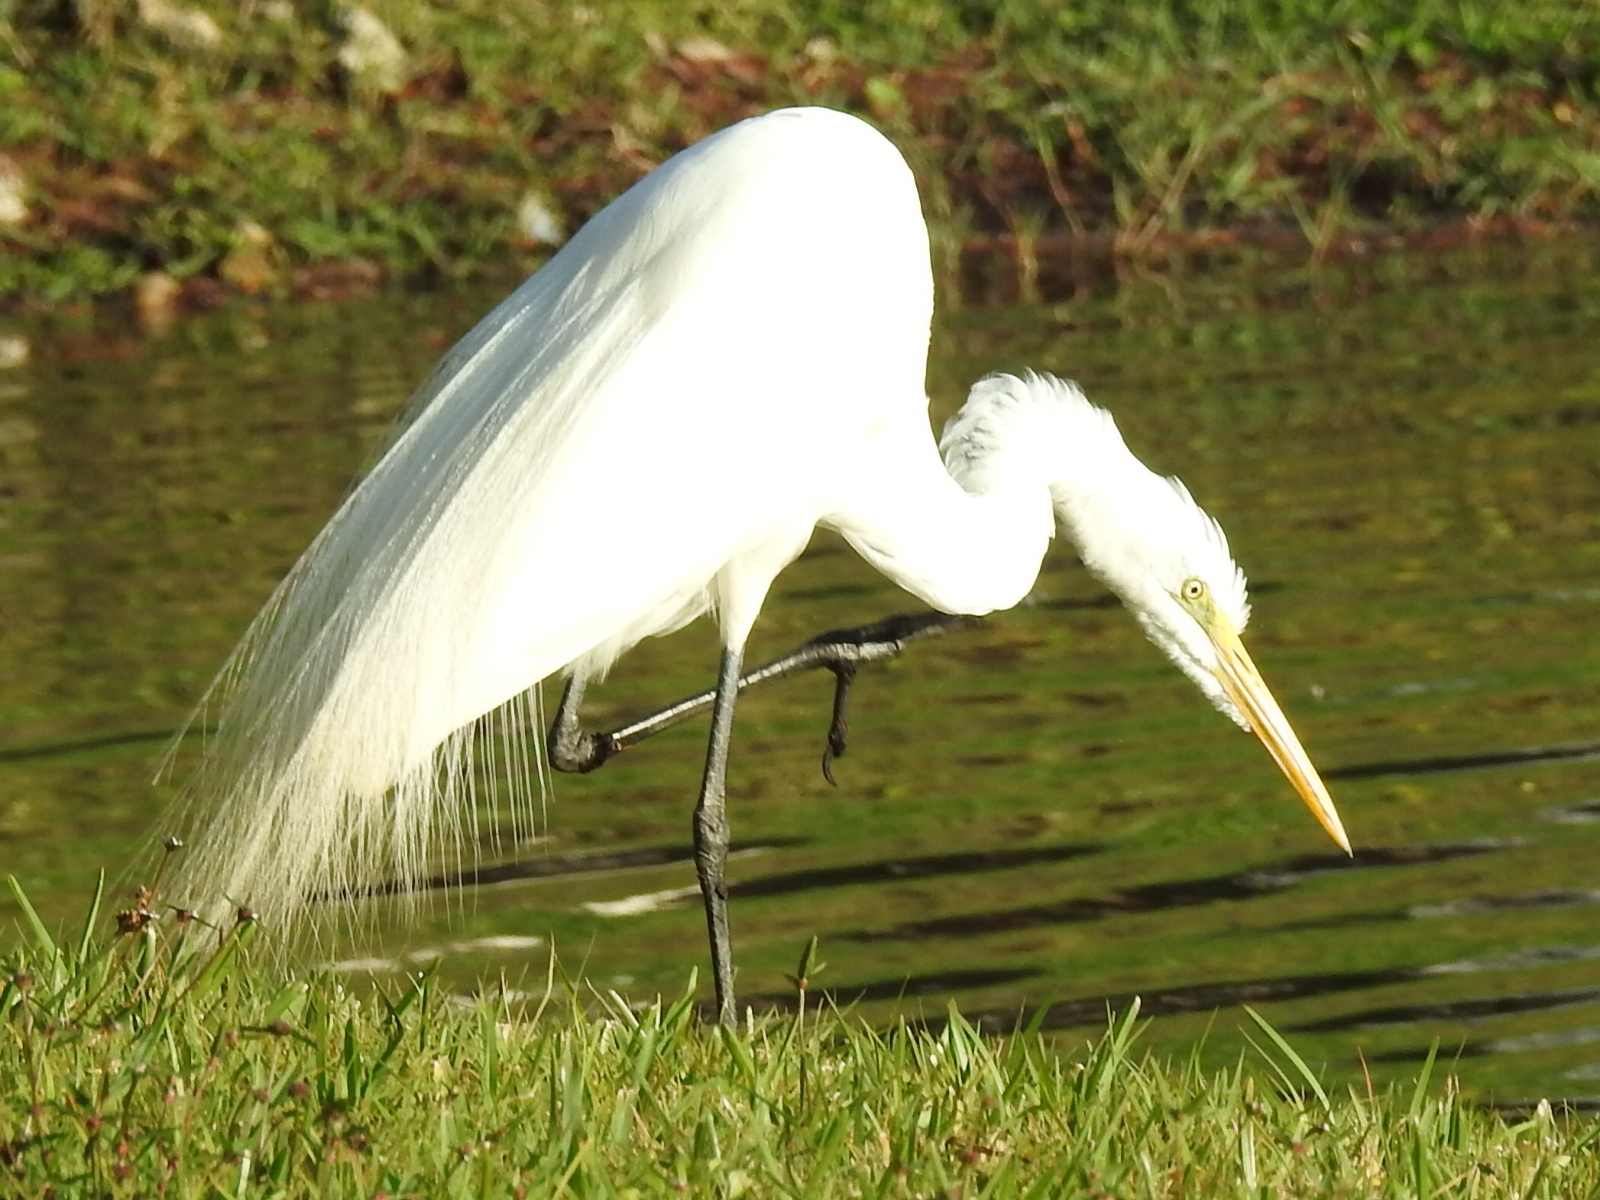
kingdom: Animalia
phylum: Chordata
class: Aves
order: Pelecaniformes
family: Ardeidae
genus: Ardea
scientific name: Ardea alba
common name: Great egret
